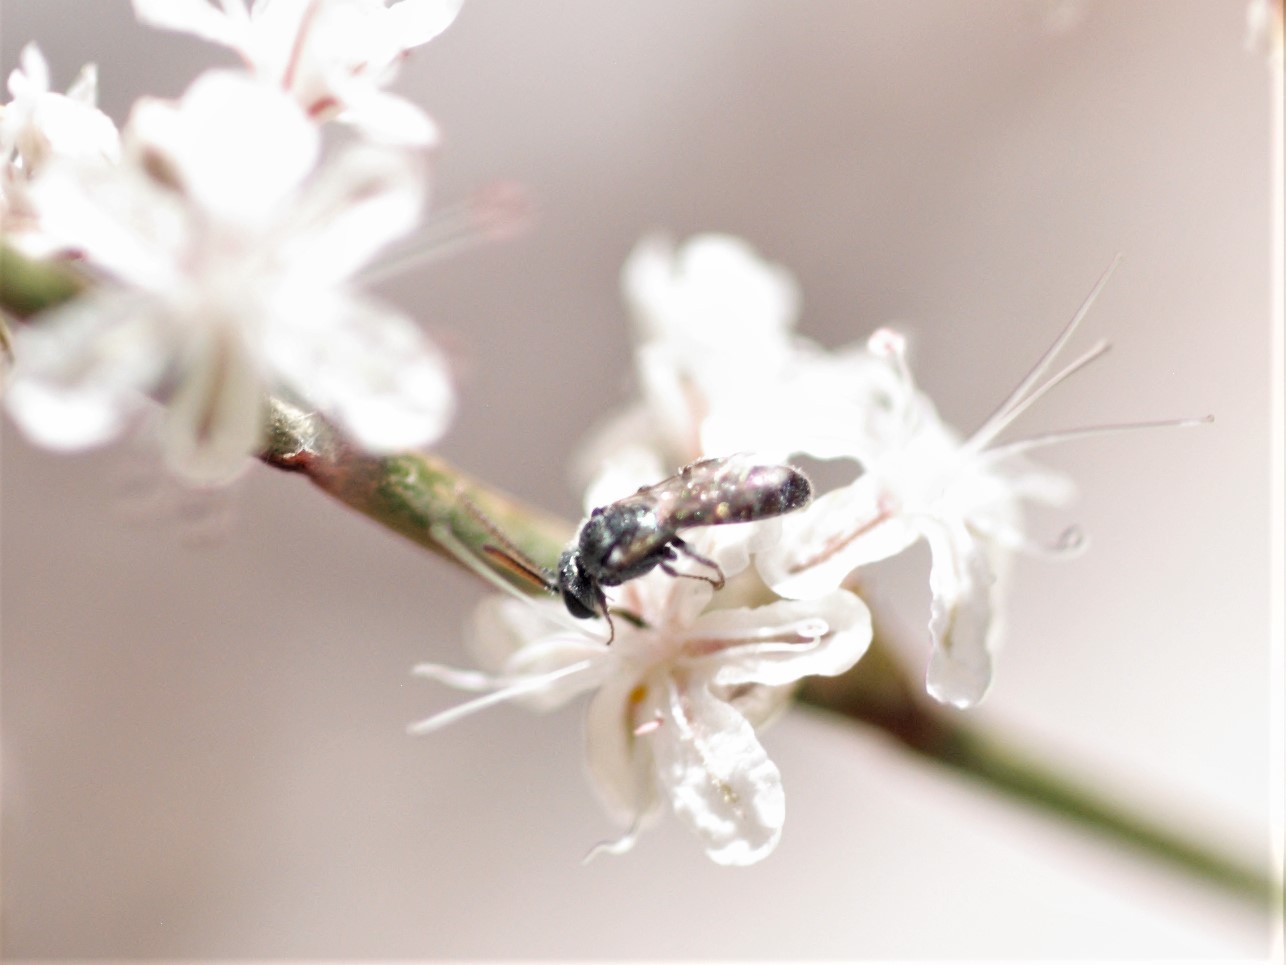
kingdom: Animalia
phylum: Arthropoda
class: Insecta
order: Hymenoptera
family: Halictidae
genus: Dialictus
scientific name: Dialictus
